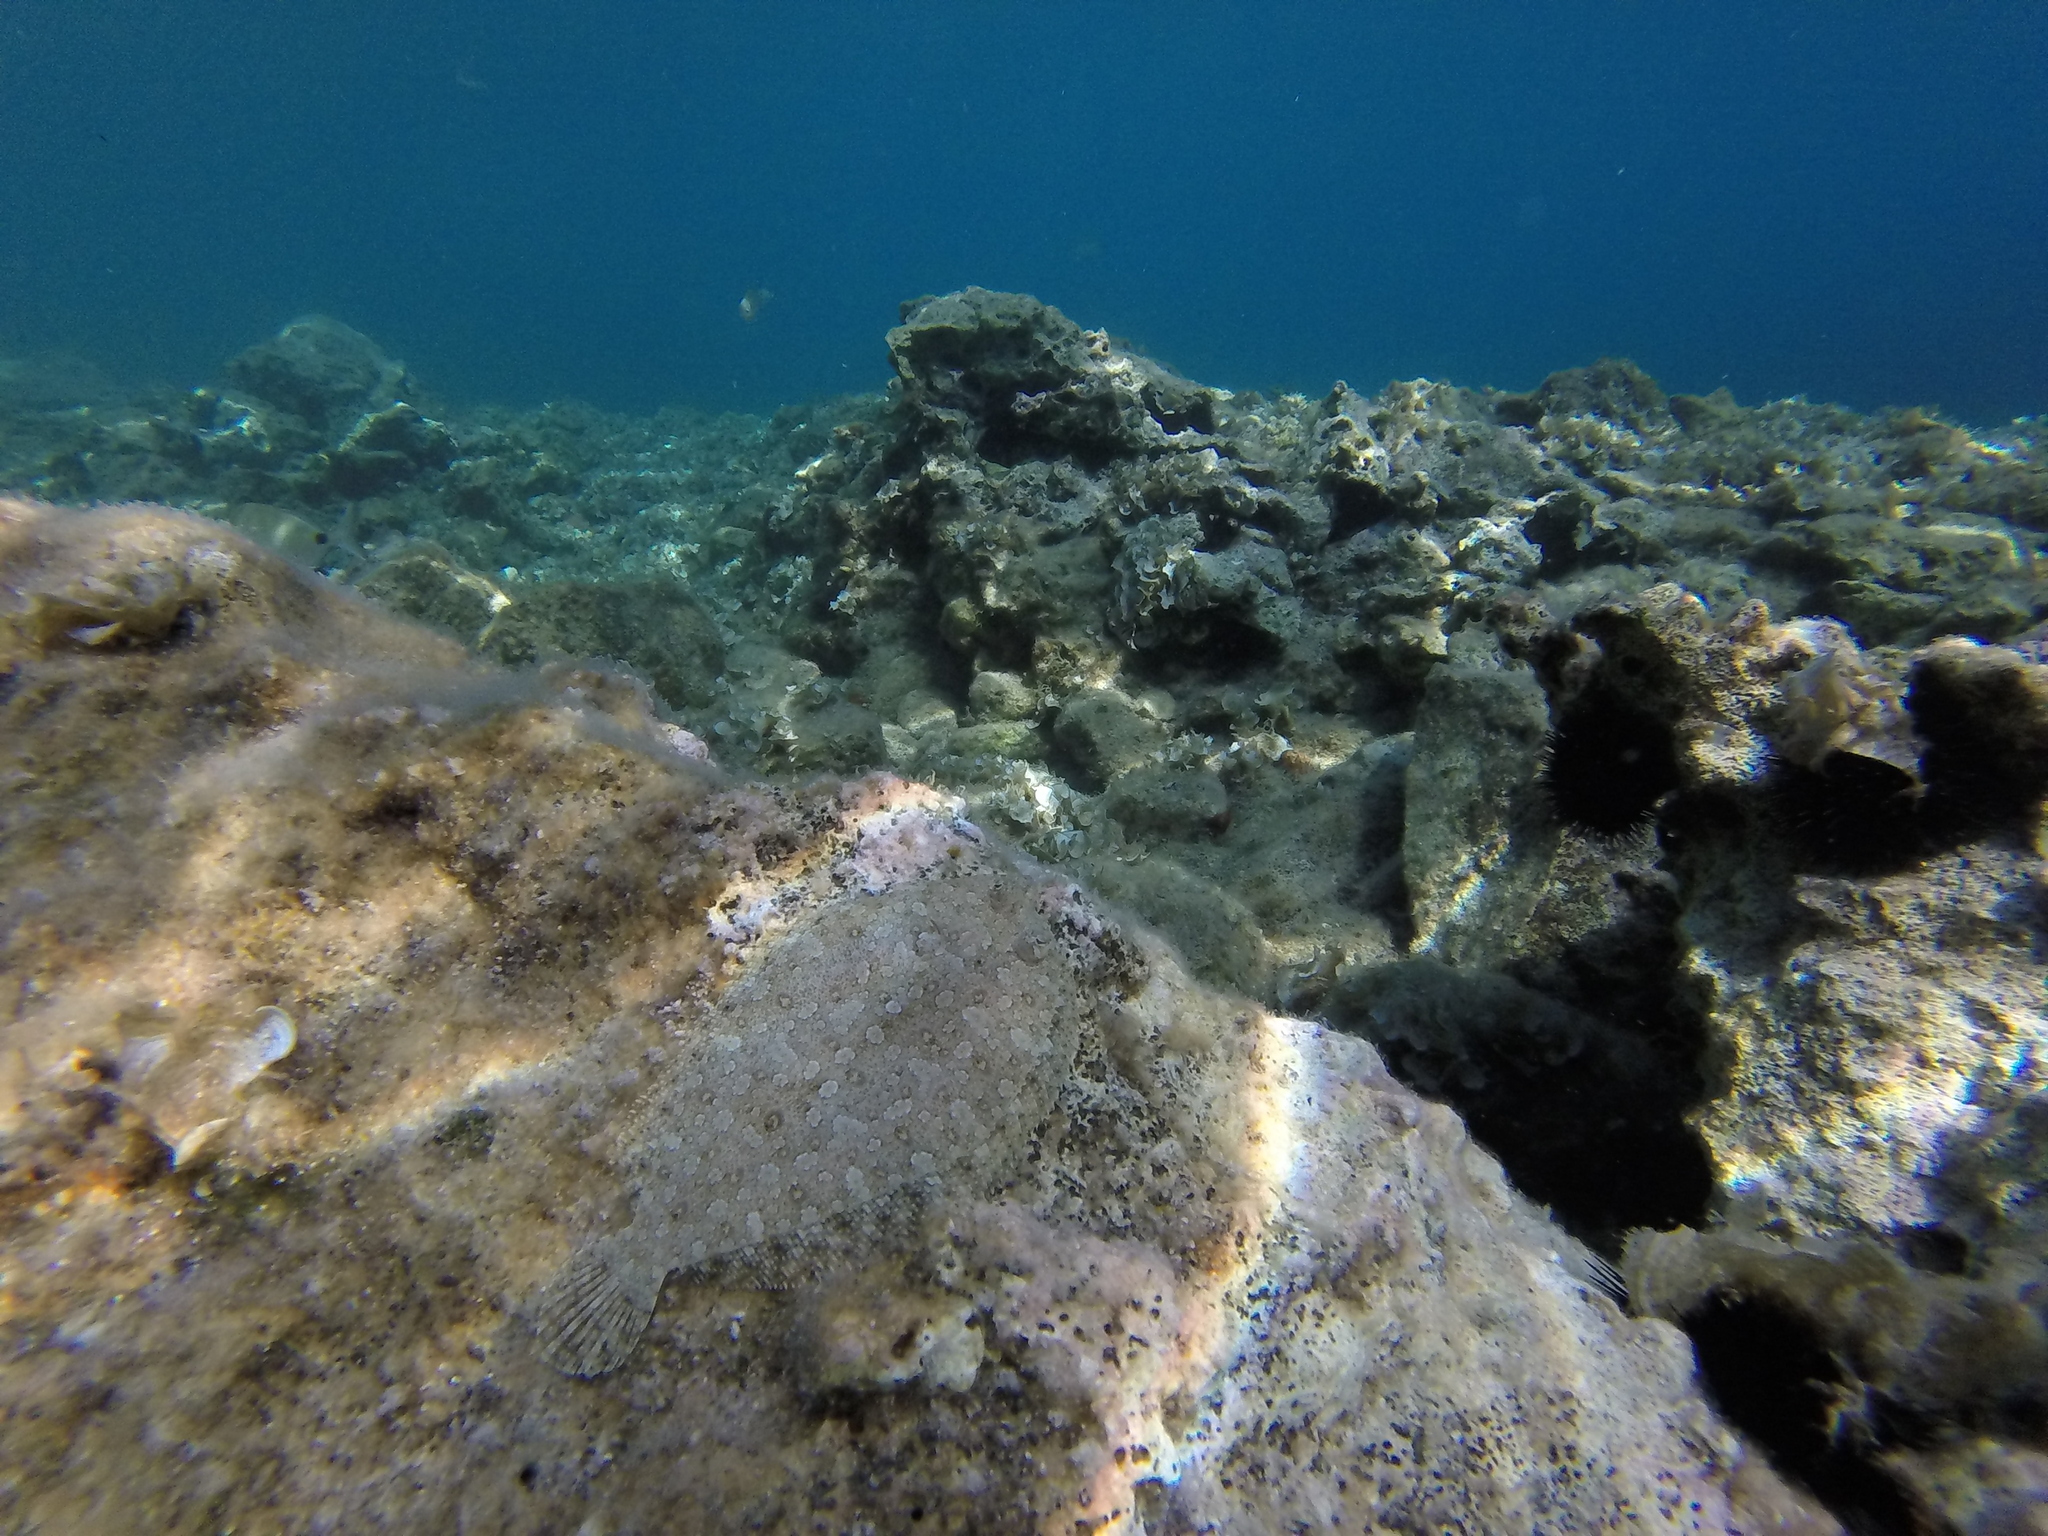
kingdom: Animalia
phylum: Chordata
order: Pleuronectiformes
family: Bothidae
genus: Bothus
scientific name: Bothus podas
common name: Wide-eyed flounder
